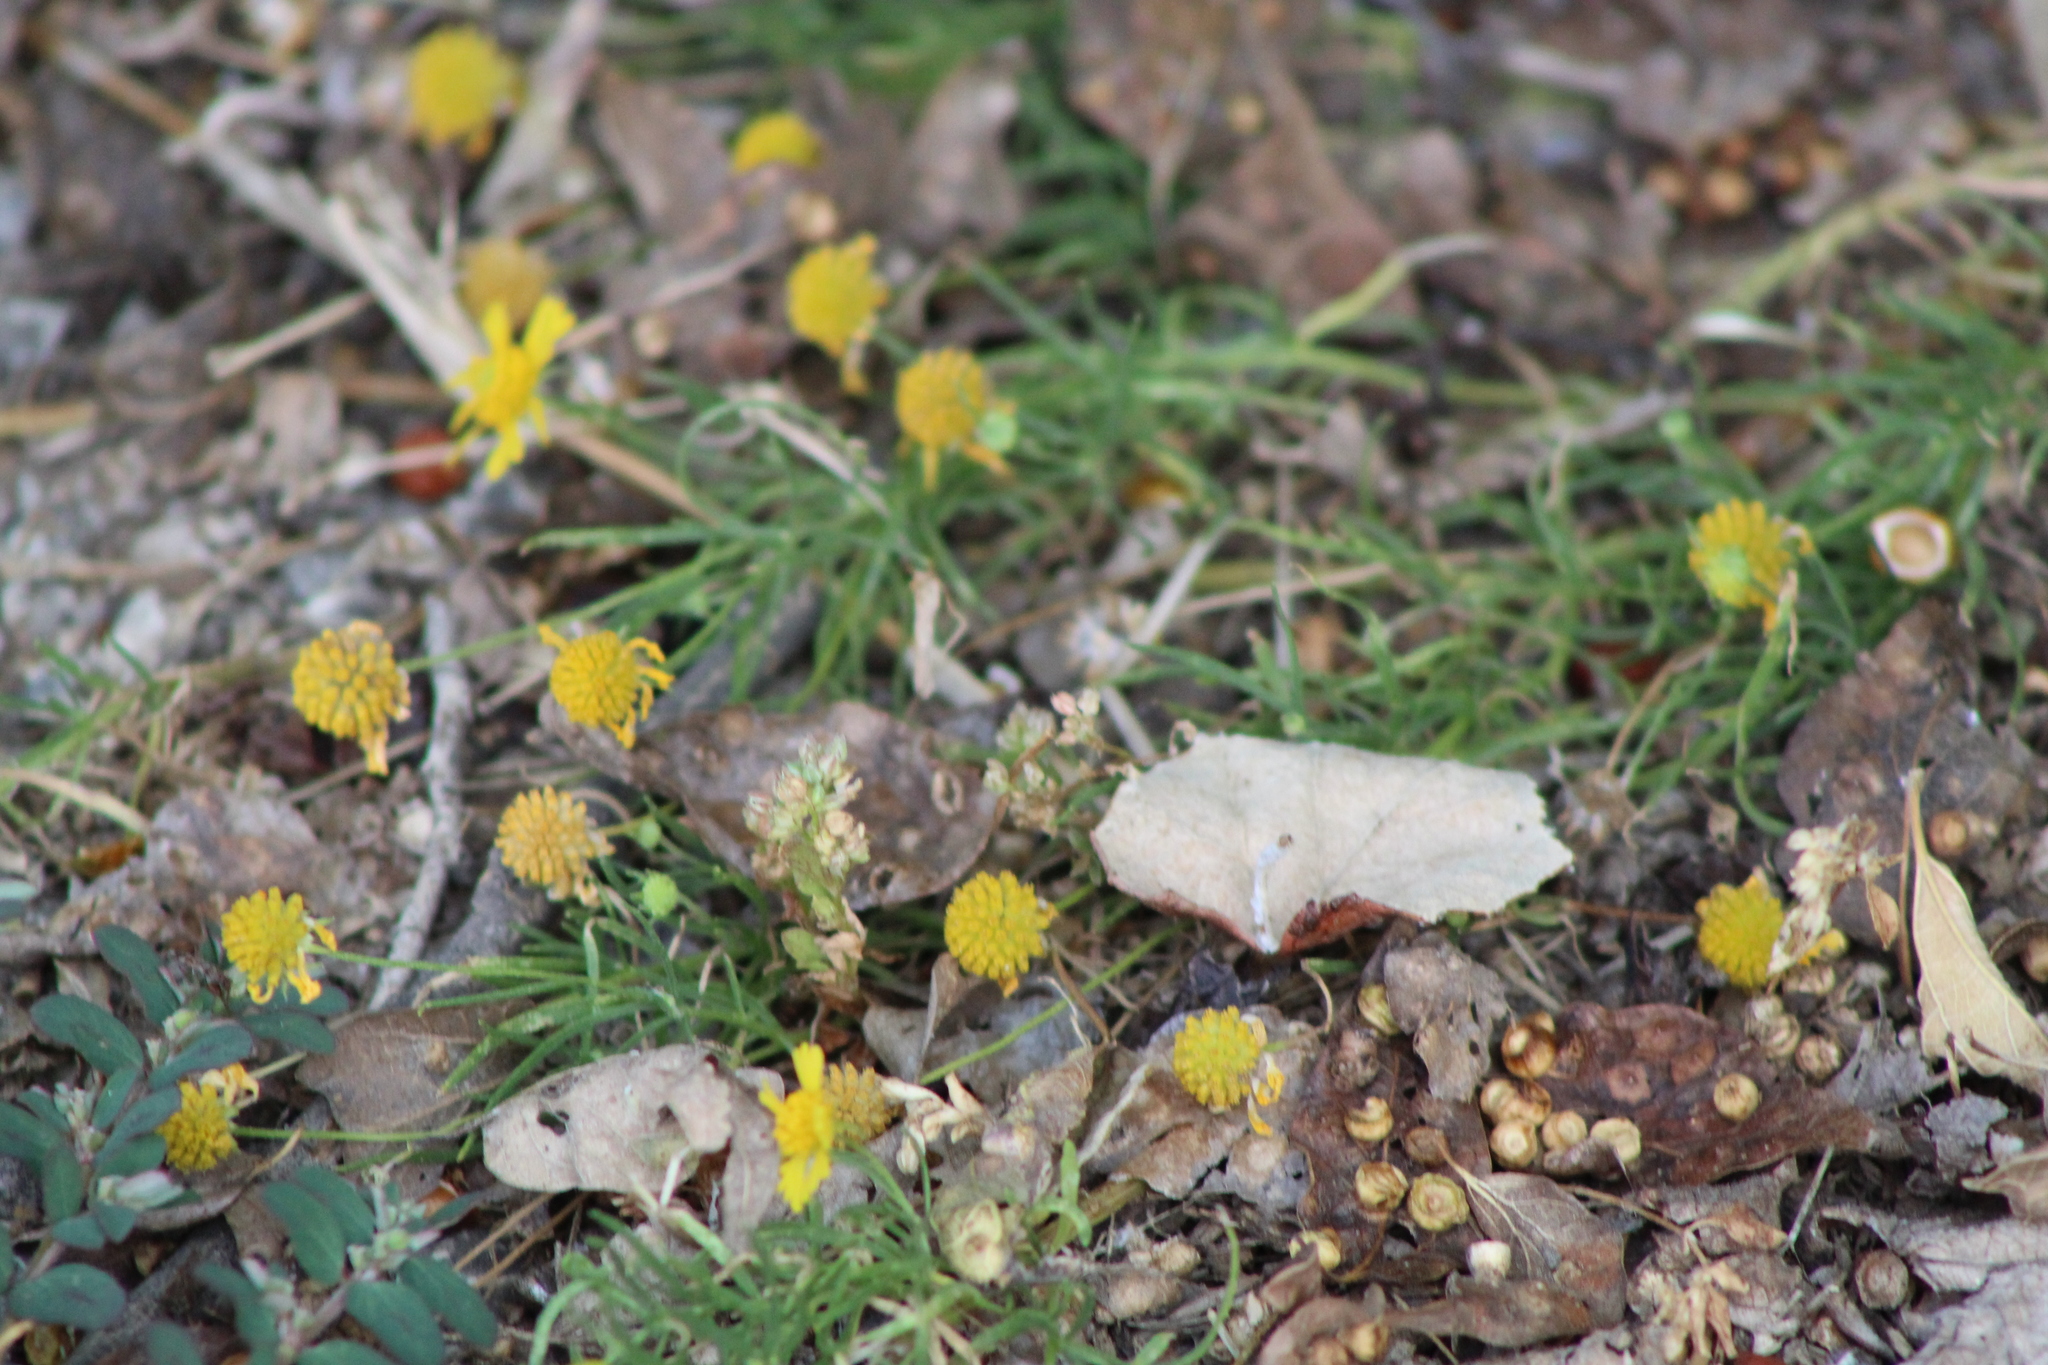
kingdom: Plantae
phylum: Tracheophyta
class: Magnoliopsida
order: Asterales
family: Asteraceae
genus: Helenium
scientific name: Helenium amarum
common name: Bitter sneezeweed
